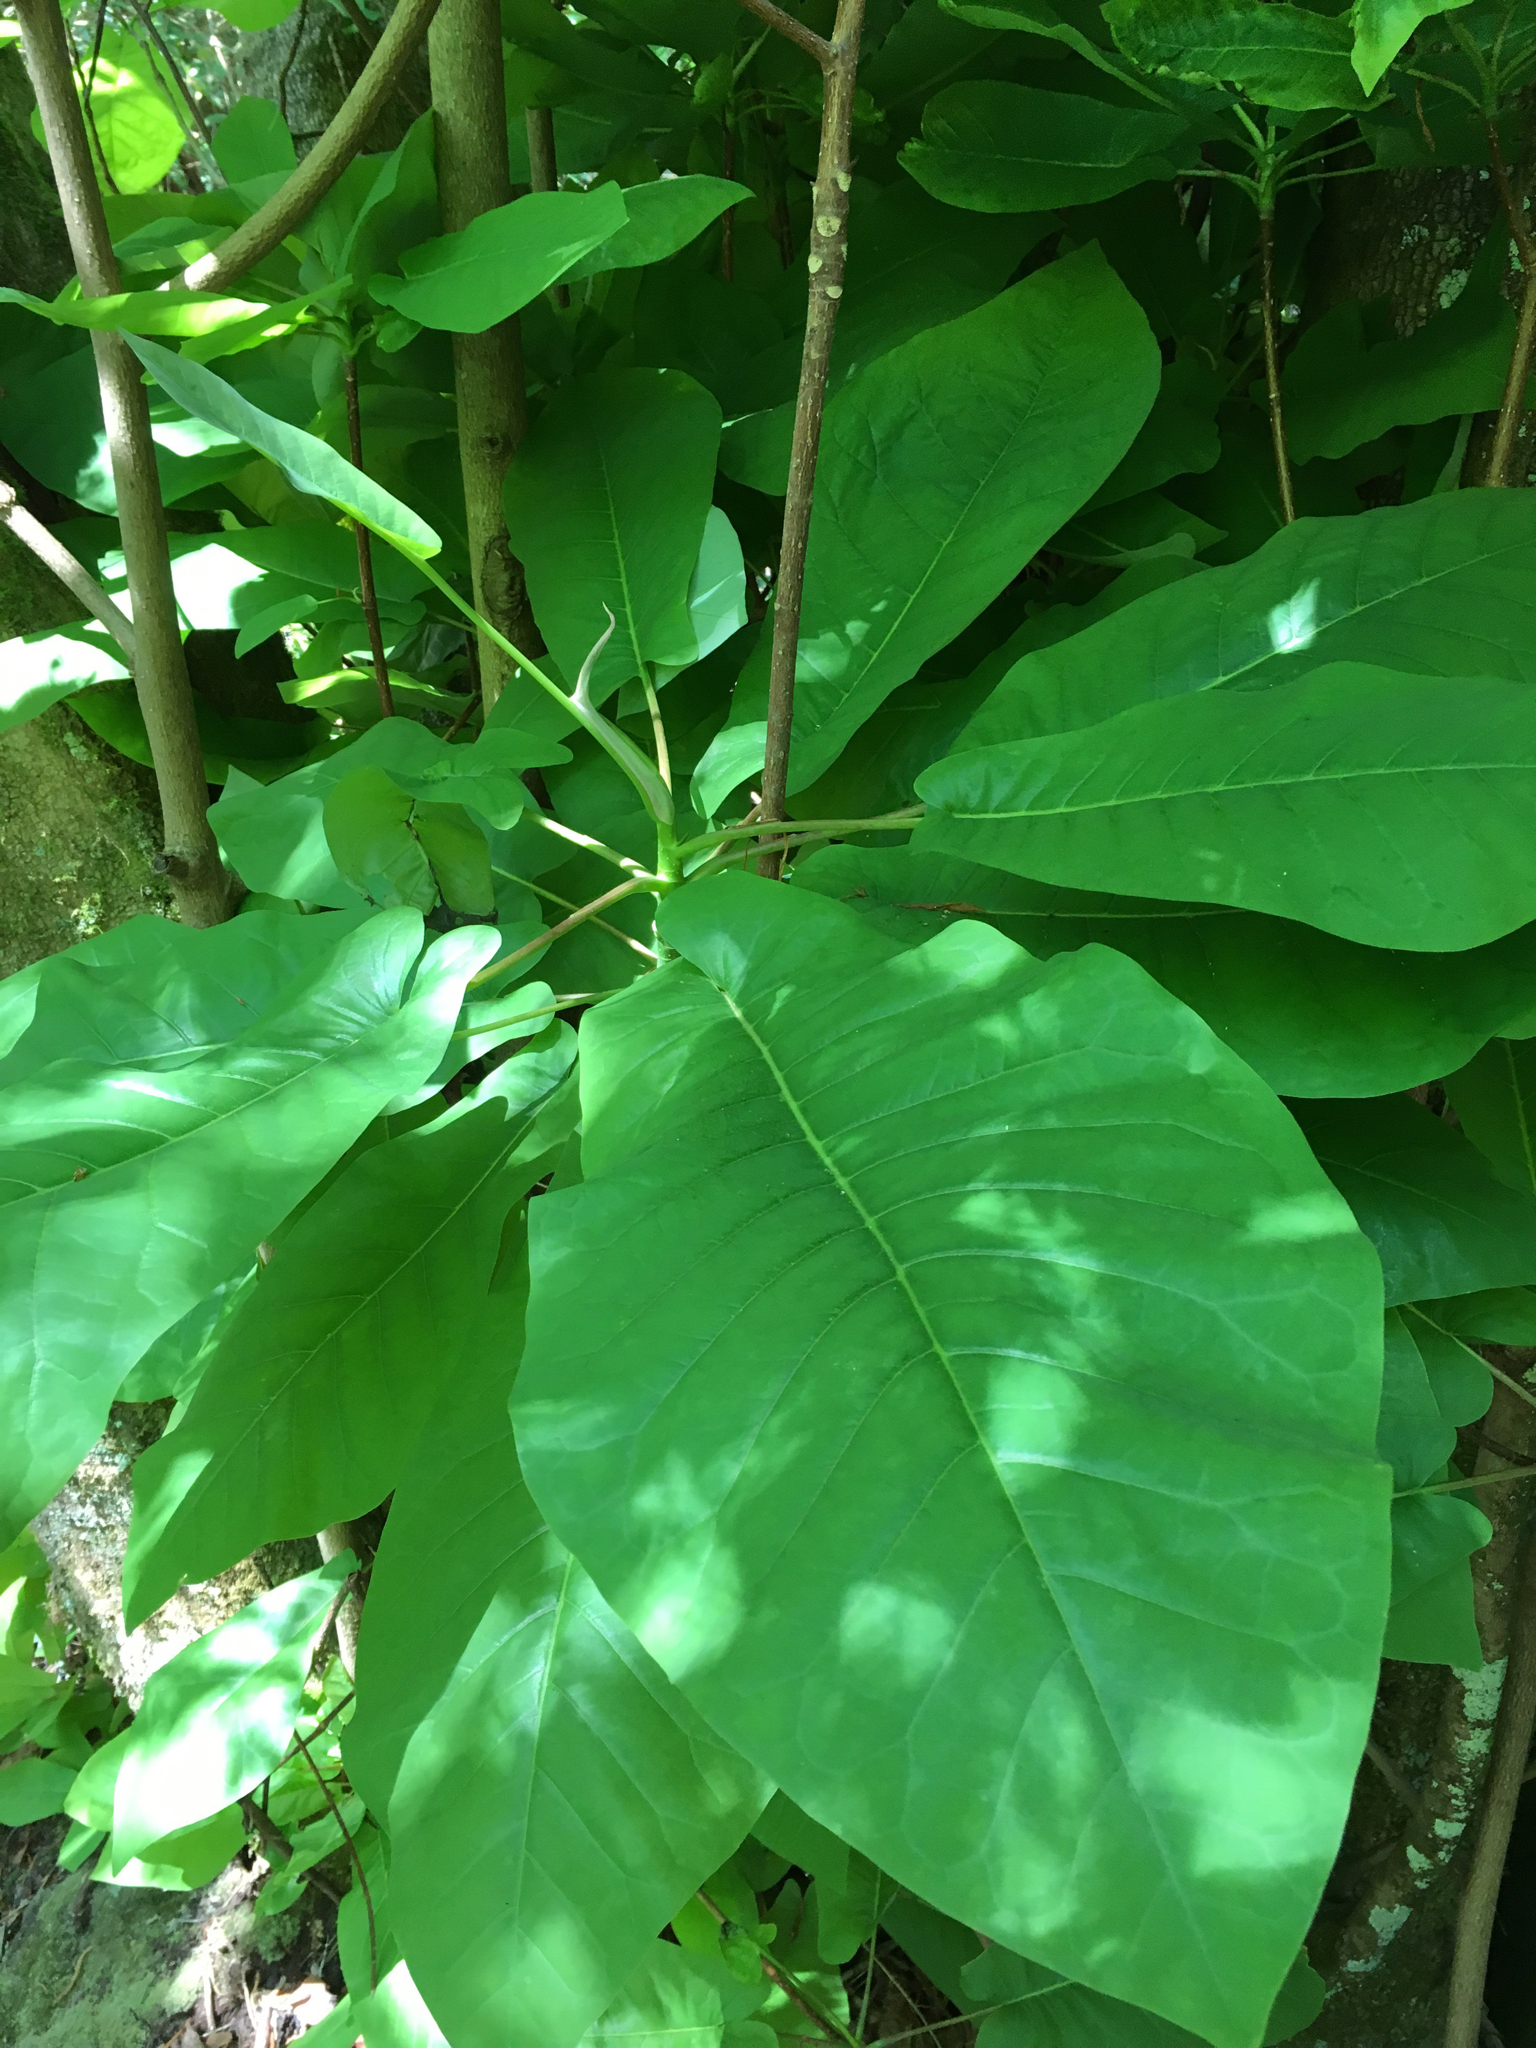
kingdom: Plantae
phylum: Tracheophyta
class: Magnoliopsida
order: Magnoliales
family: Magnoliaceae
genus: Magnolia
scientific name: Magnolia fraseri
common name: Fraser's magnolia
